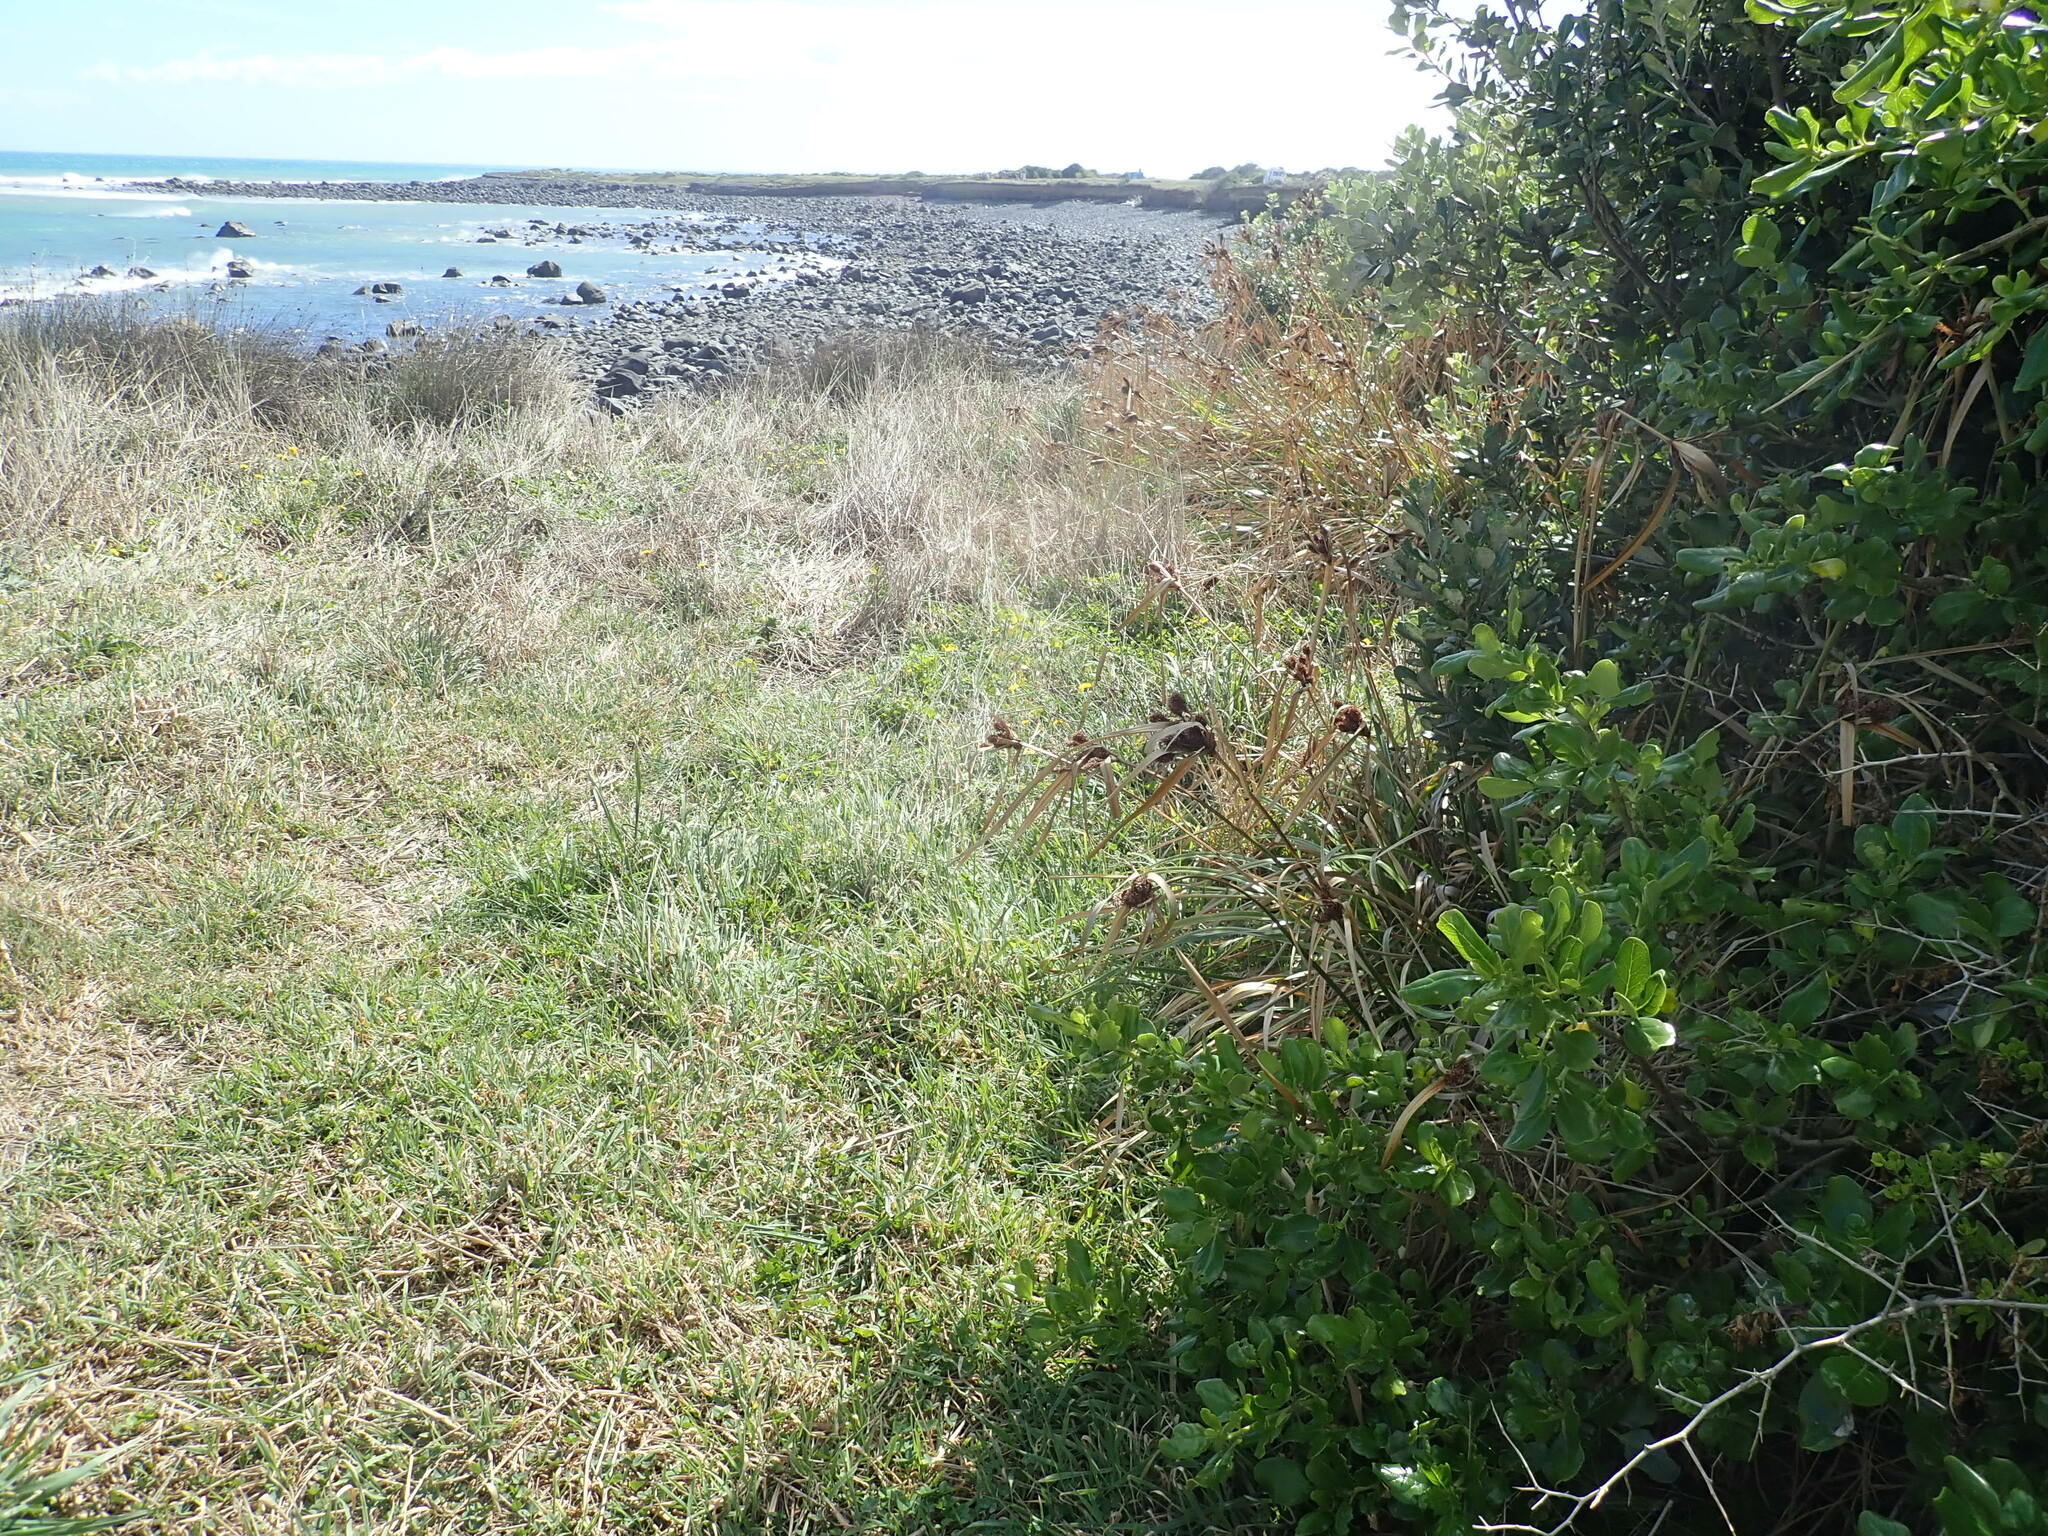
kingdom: Plantae
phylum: Tracheophyta
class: Liliopsida
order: Poales
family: Cyperaceae
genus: Cyperus
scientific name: Cyperus ustulatus
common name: Giant umbrella-sedge
